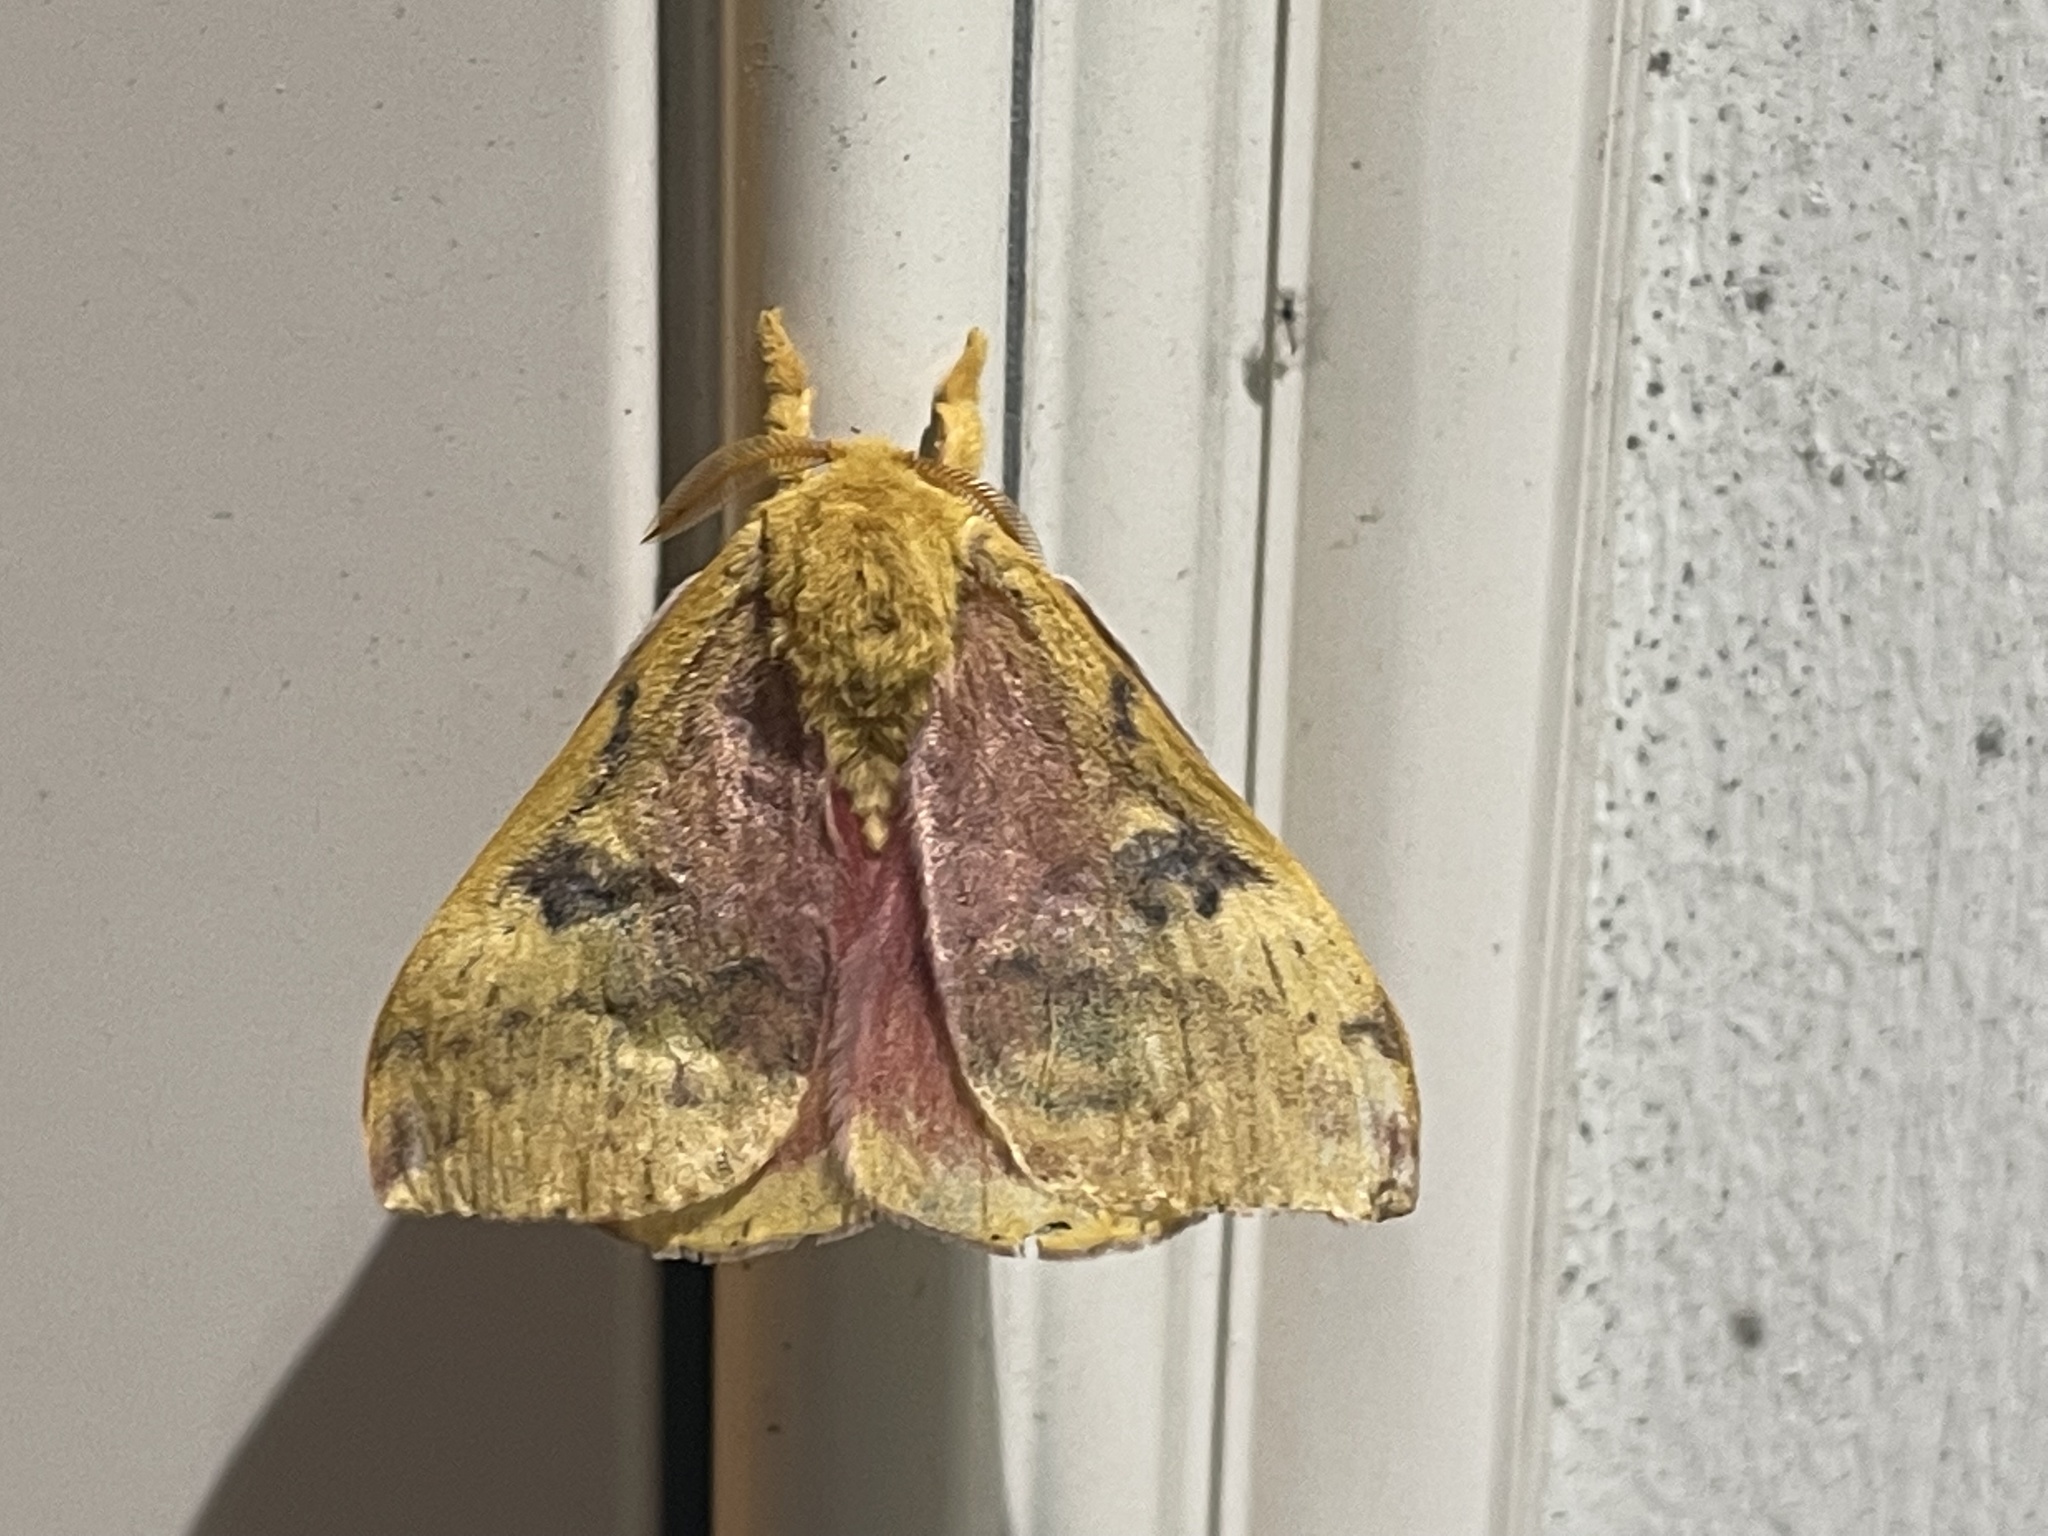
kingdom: Animalia
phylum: Arthropoda
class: Insecta
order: Lepidoptera
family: Saturniidae
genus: Automeris
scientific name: Automeris io
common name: Io moth
